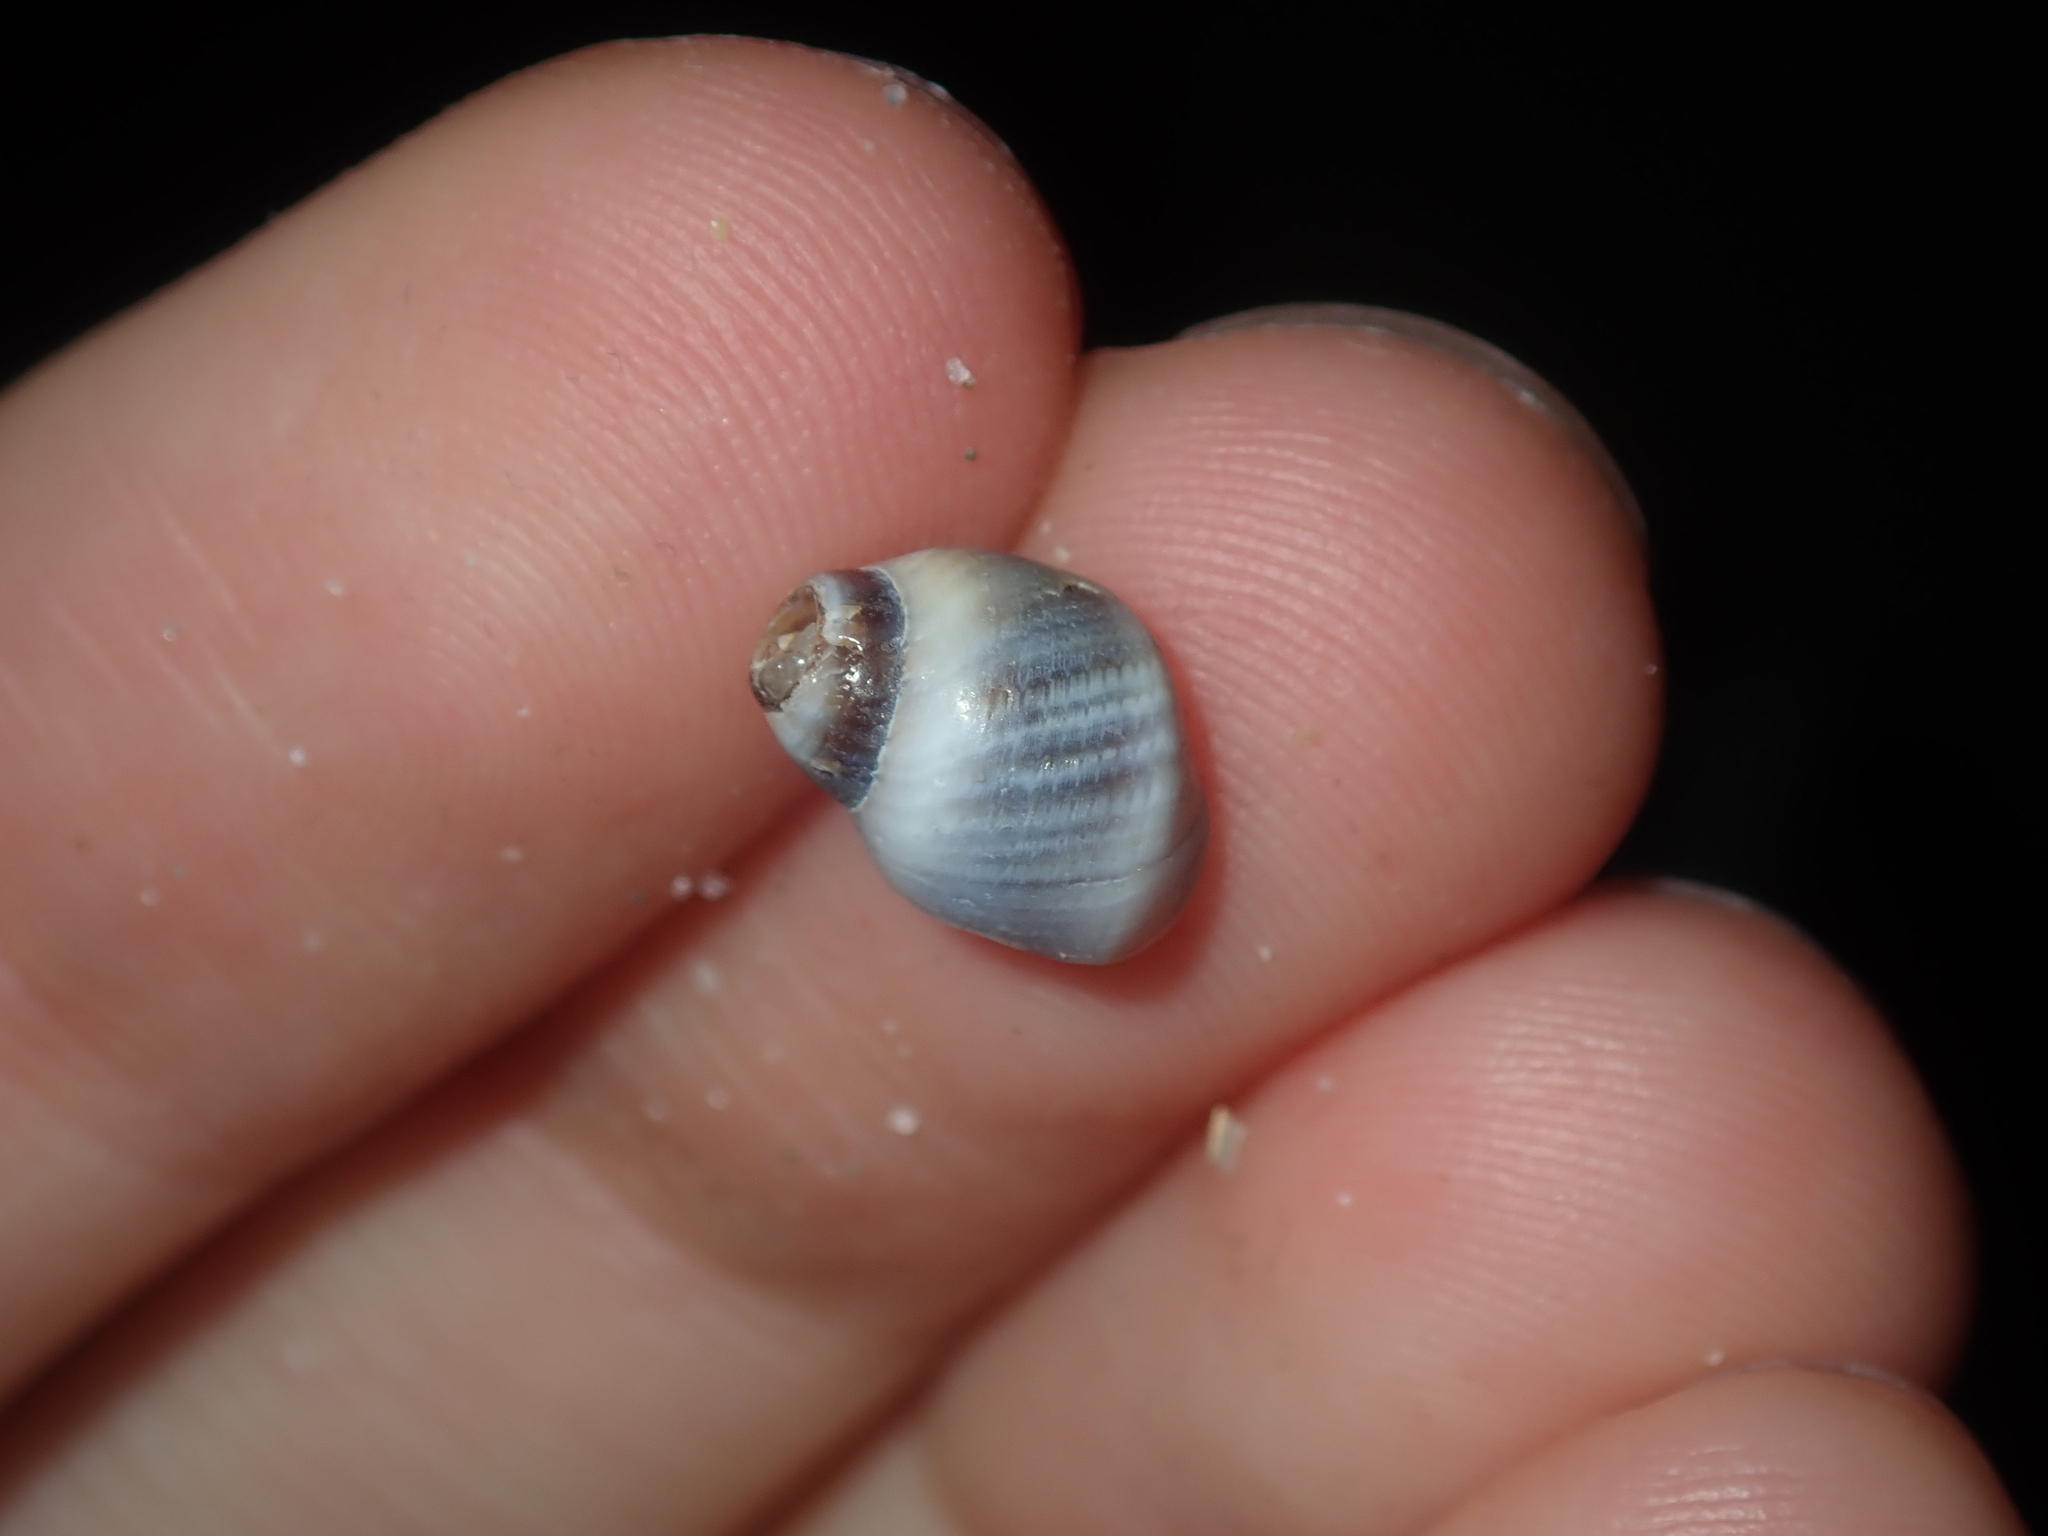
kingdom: Animalia
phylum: Mollusca
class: Gastropoda
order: Littorinimorpha
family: Littorinidae
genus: Austrolittorina
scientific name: Austrolittorina unifasciata
